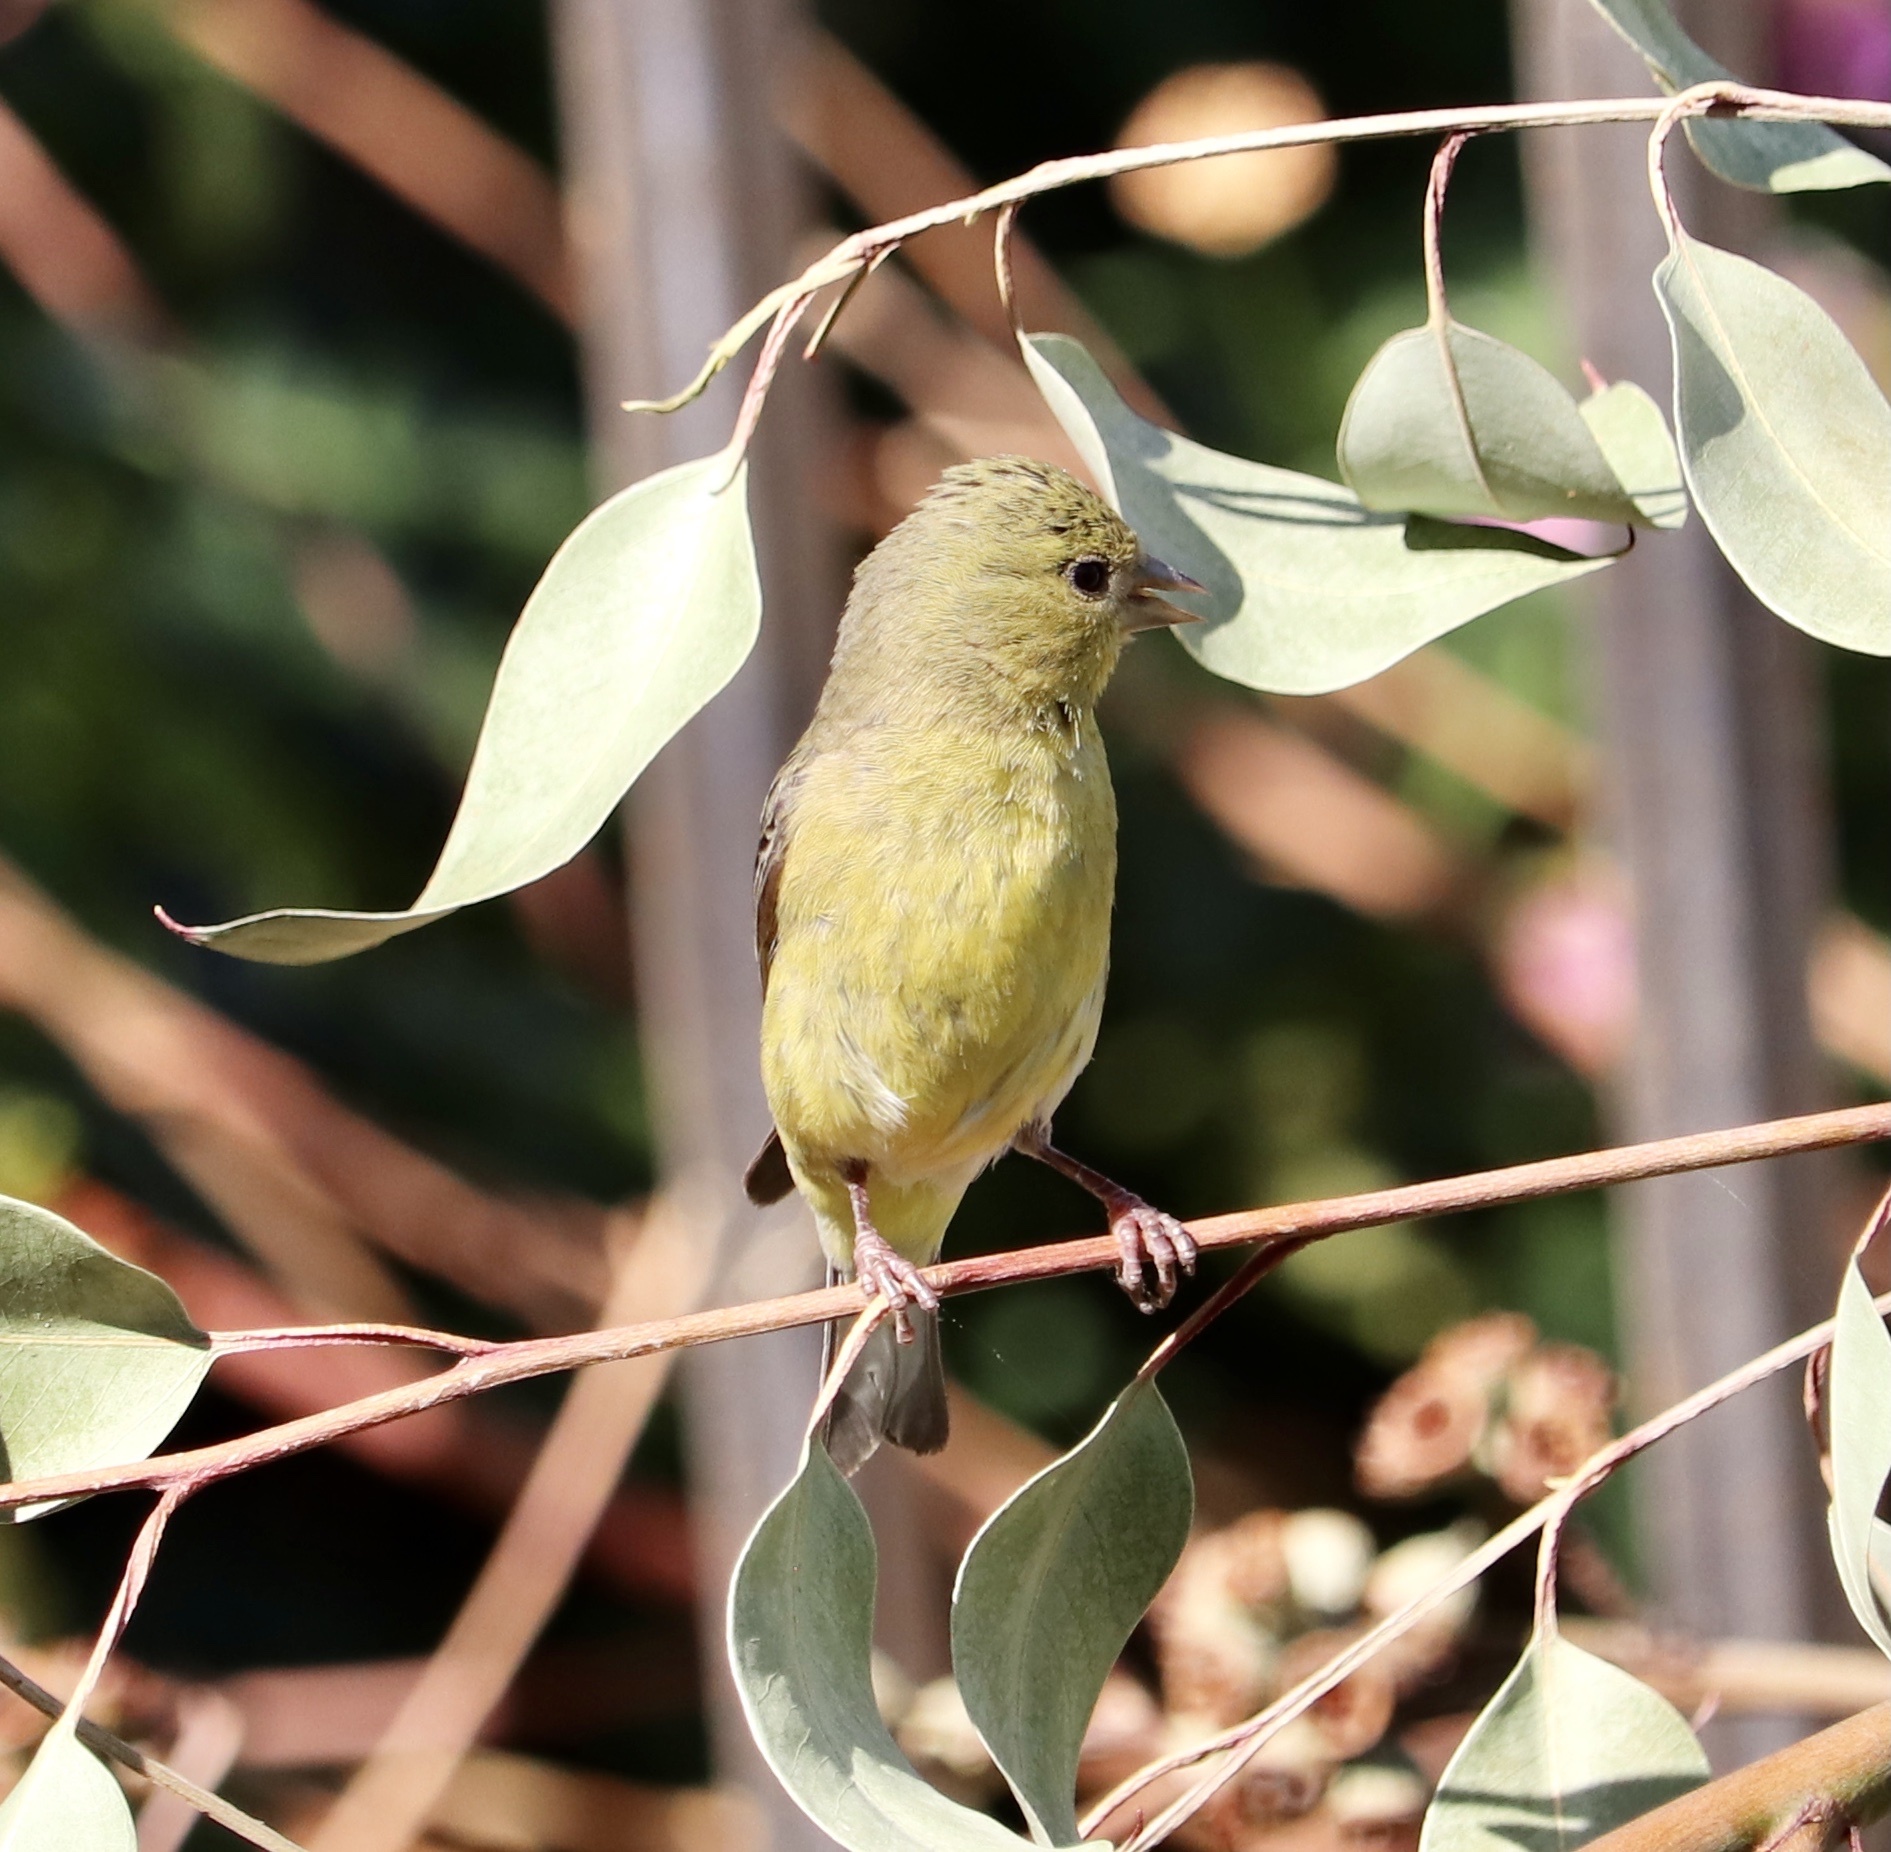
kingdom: Animalia
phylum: Chordata
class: Aves
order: Passeriformes
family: Fringillidae
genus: Spinus
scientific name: Spinus psaltria
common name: Lesser goldfinch
